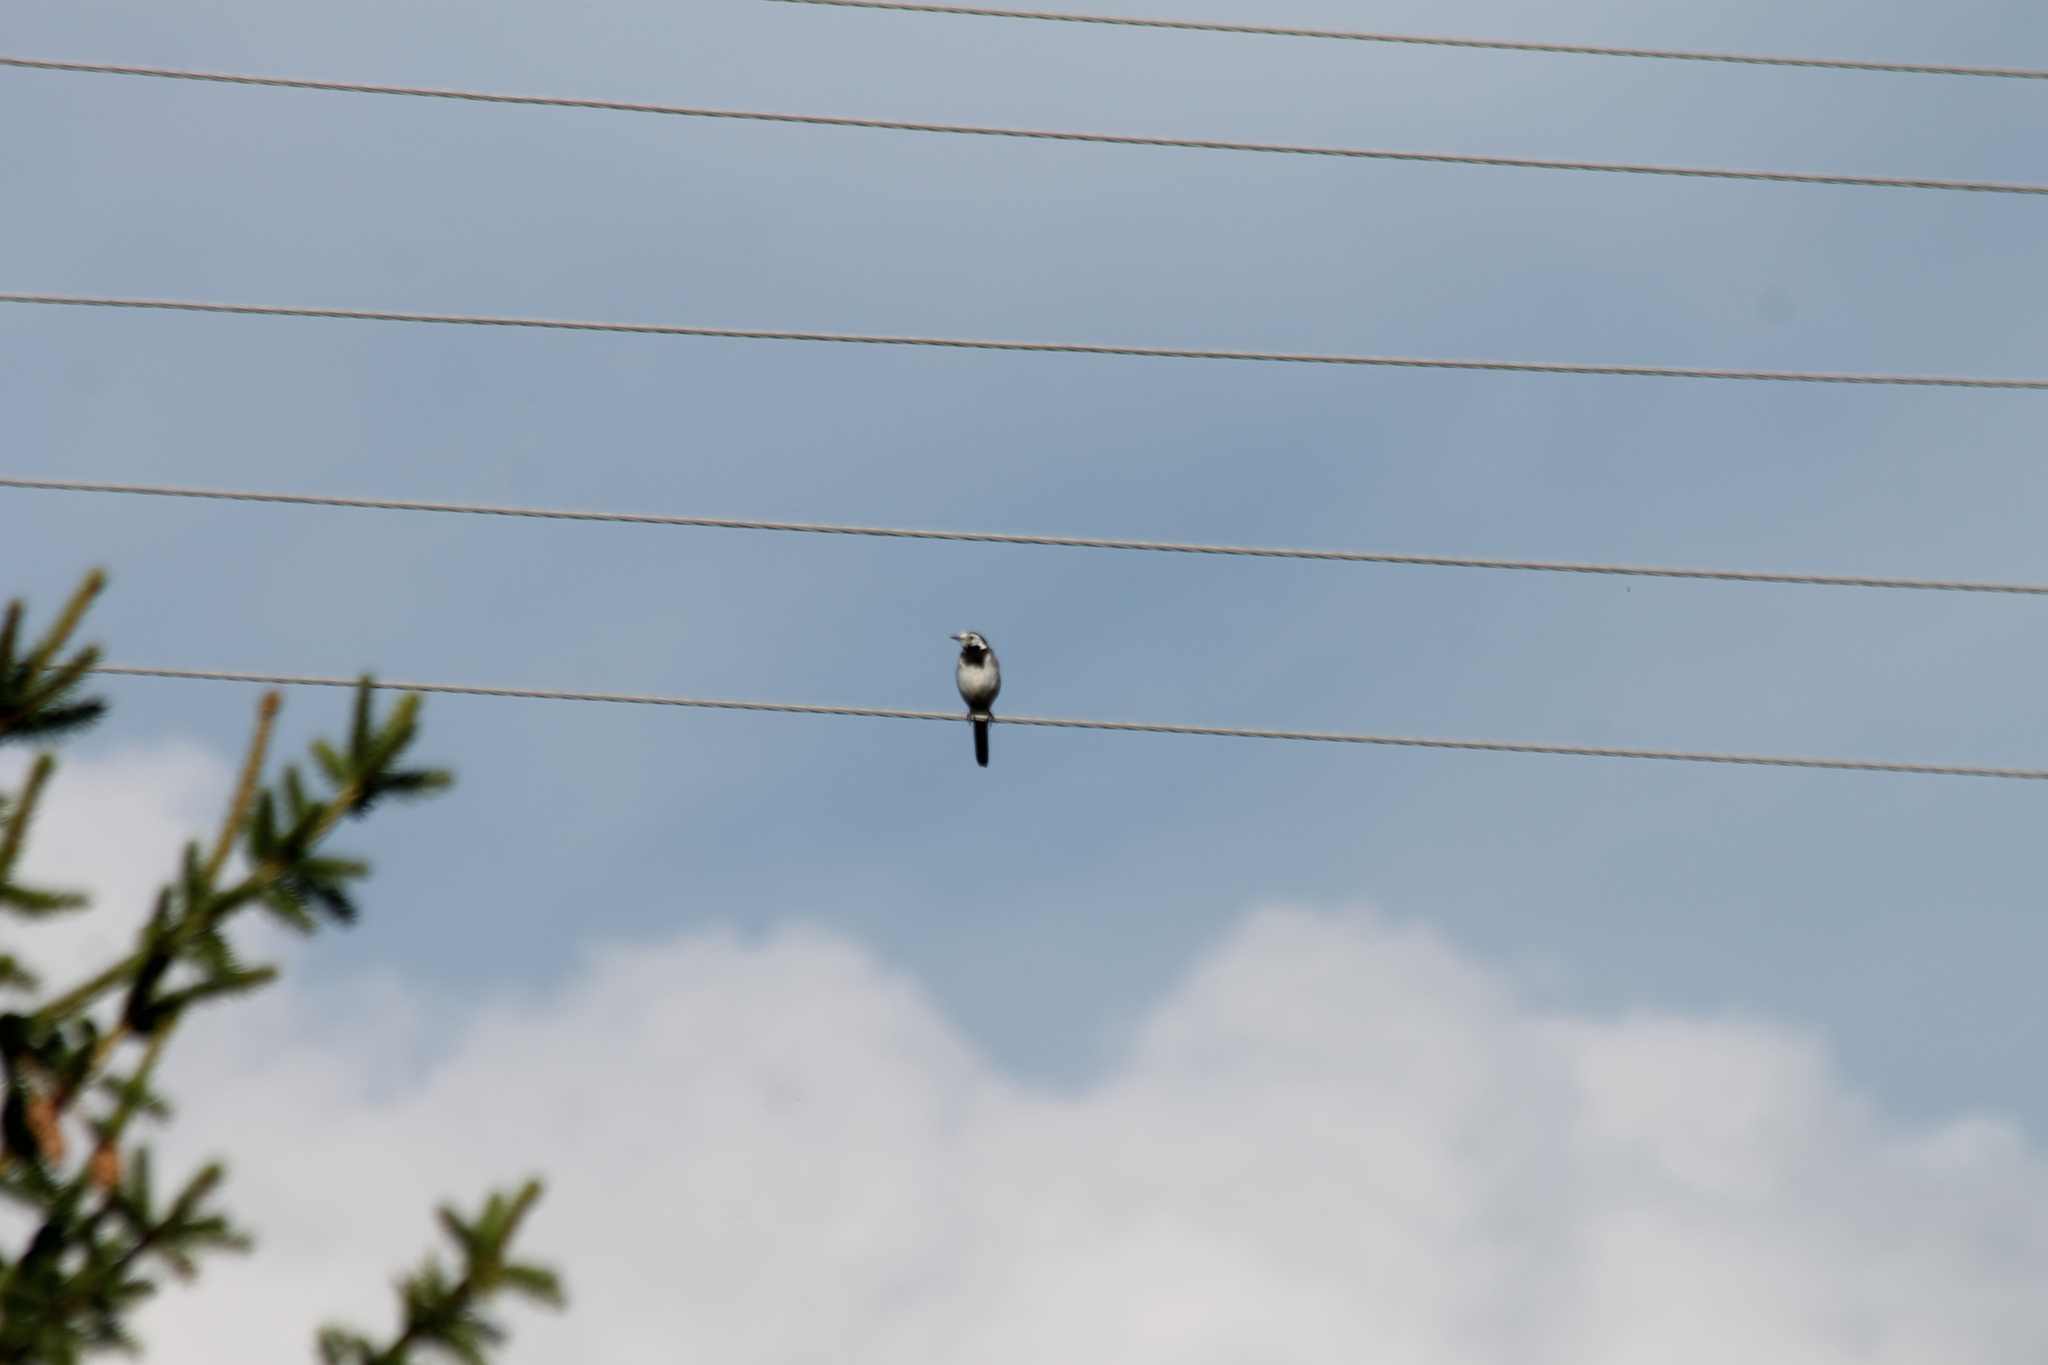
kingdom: Animalia
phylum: Chordata
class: Aves
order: Passeriformes
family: Motacillidae
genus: Motacilla
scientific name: Motacilla alba
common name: White wagtail
